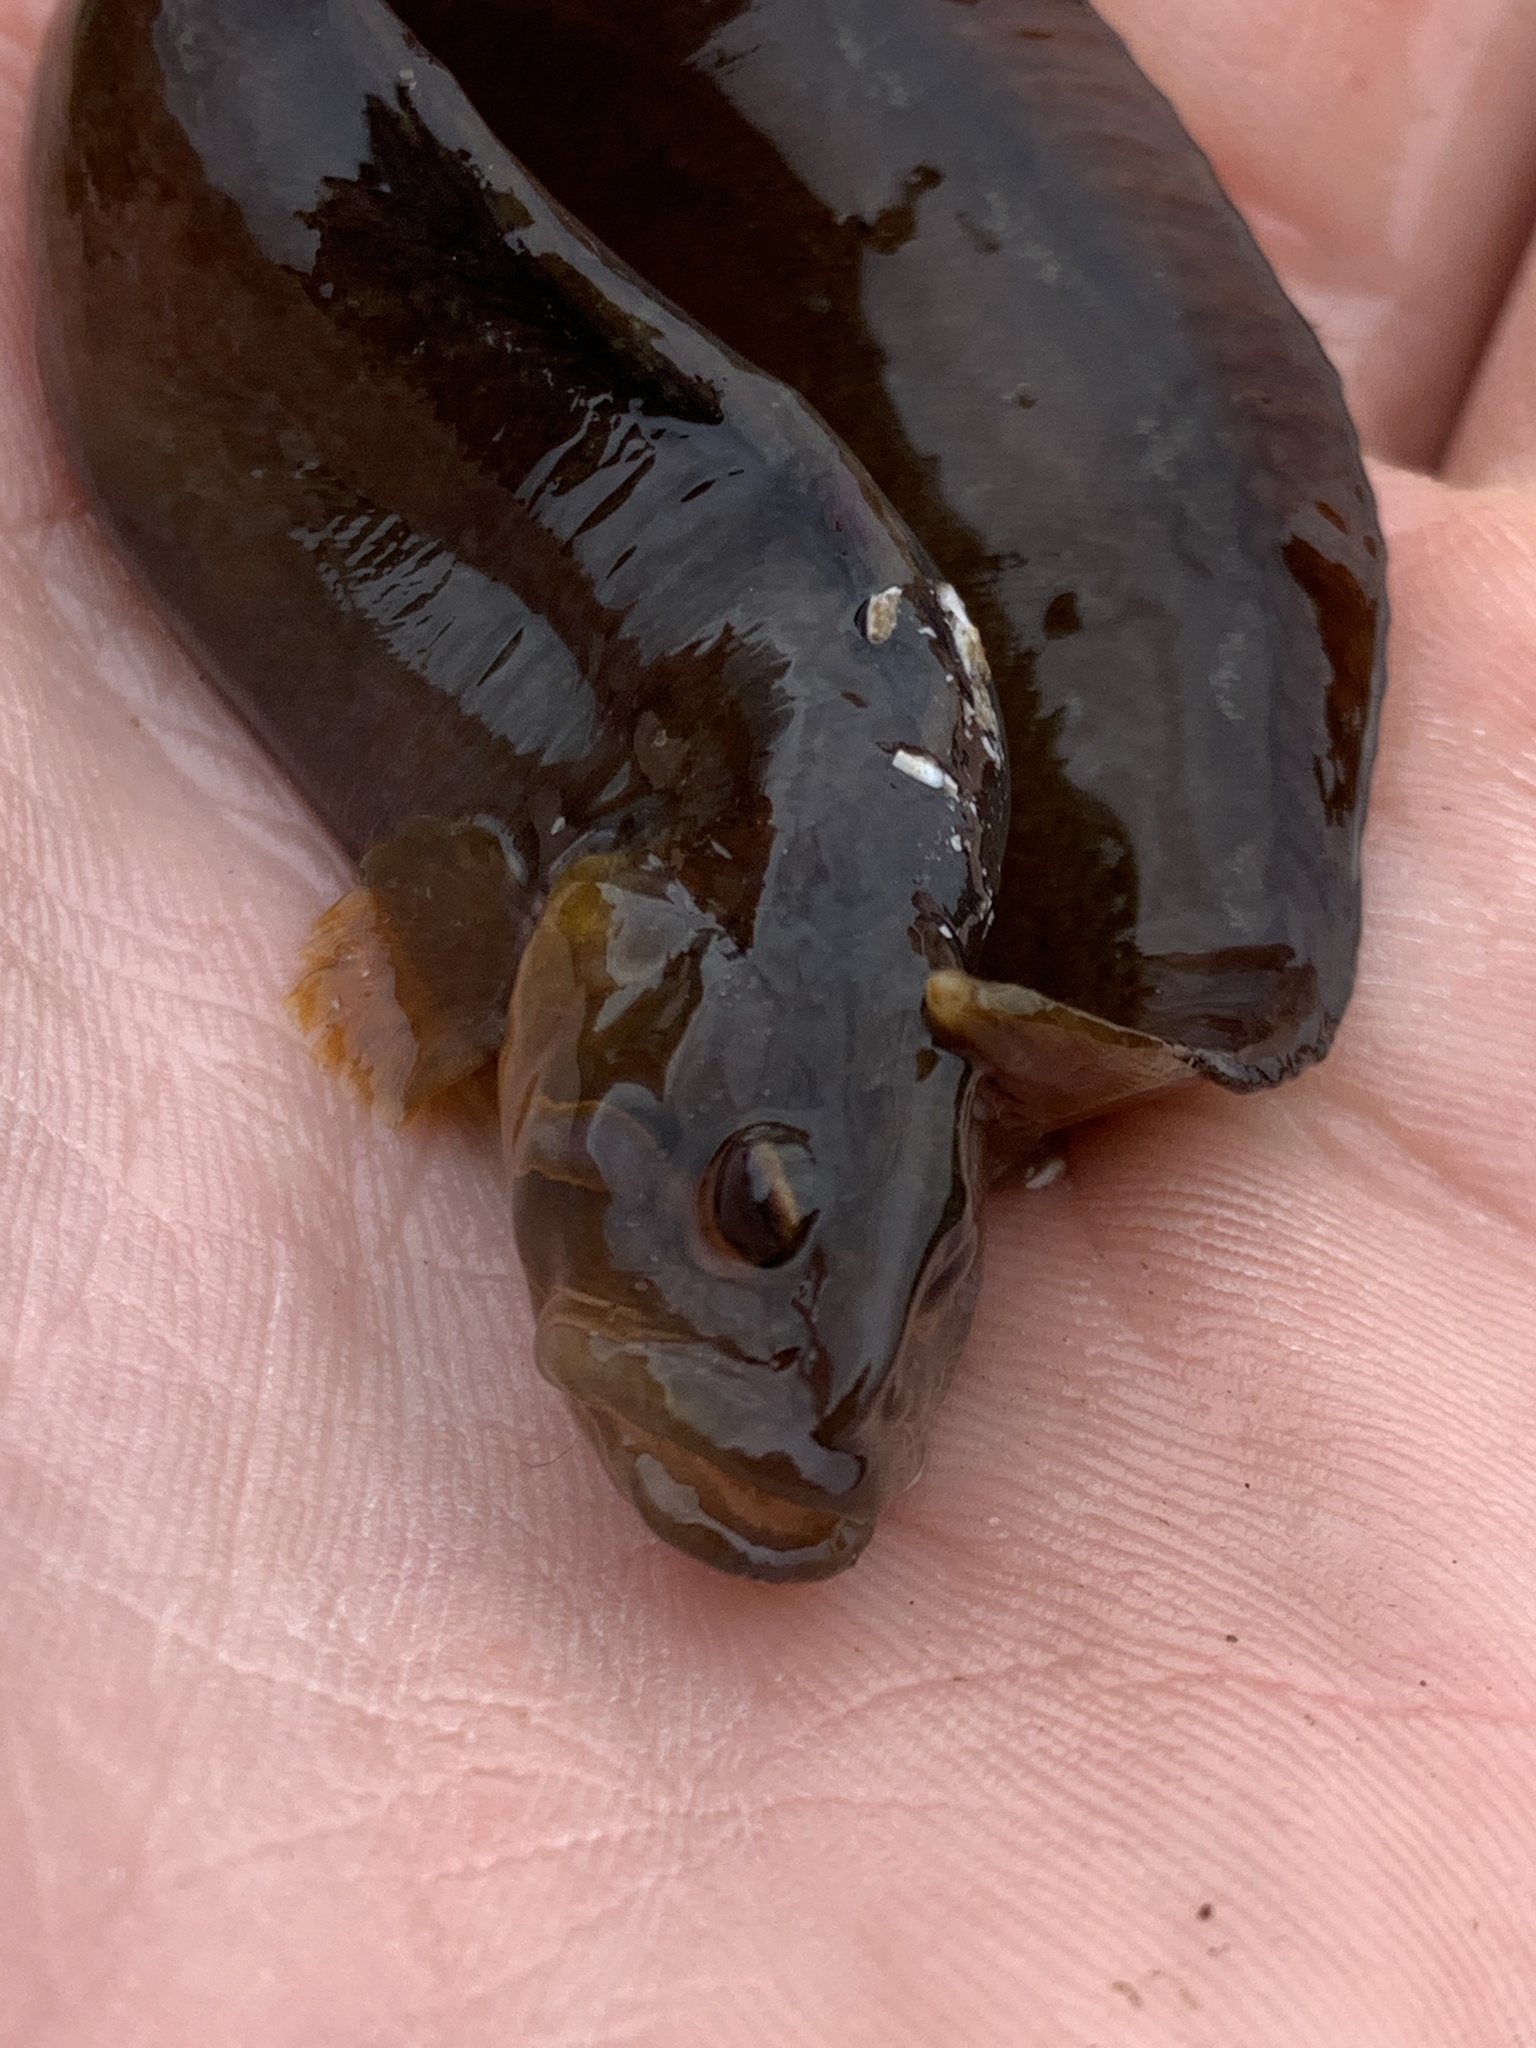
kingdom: Animalia
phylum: Chordata
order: Perciformes
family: Stichaeidae
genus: Anoplarchus
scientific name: Anoplarchus purpurescens
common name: High cockscomb
